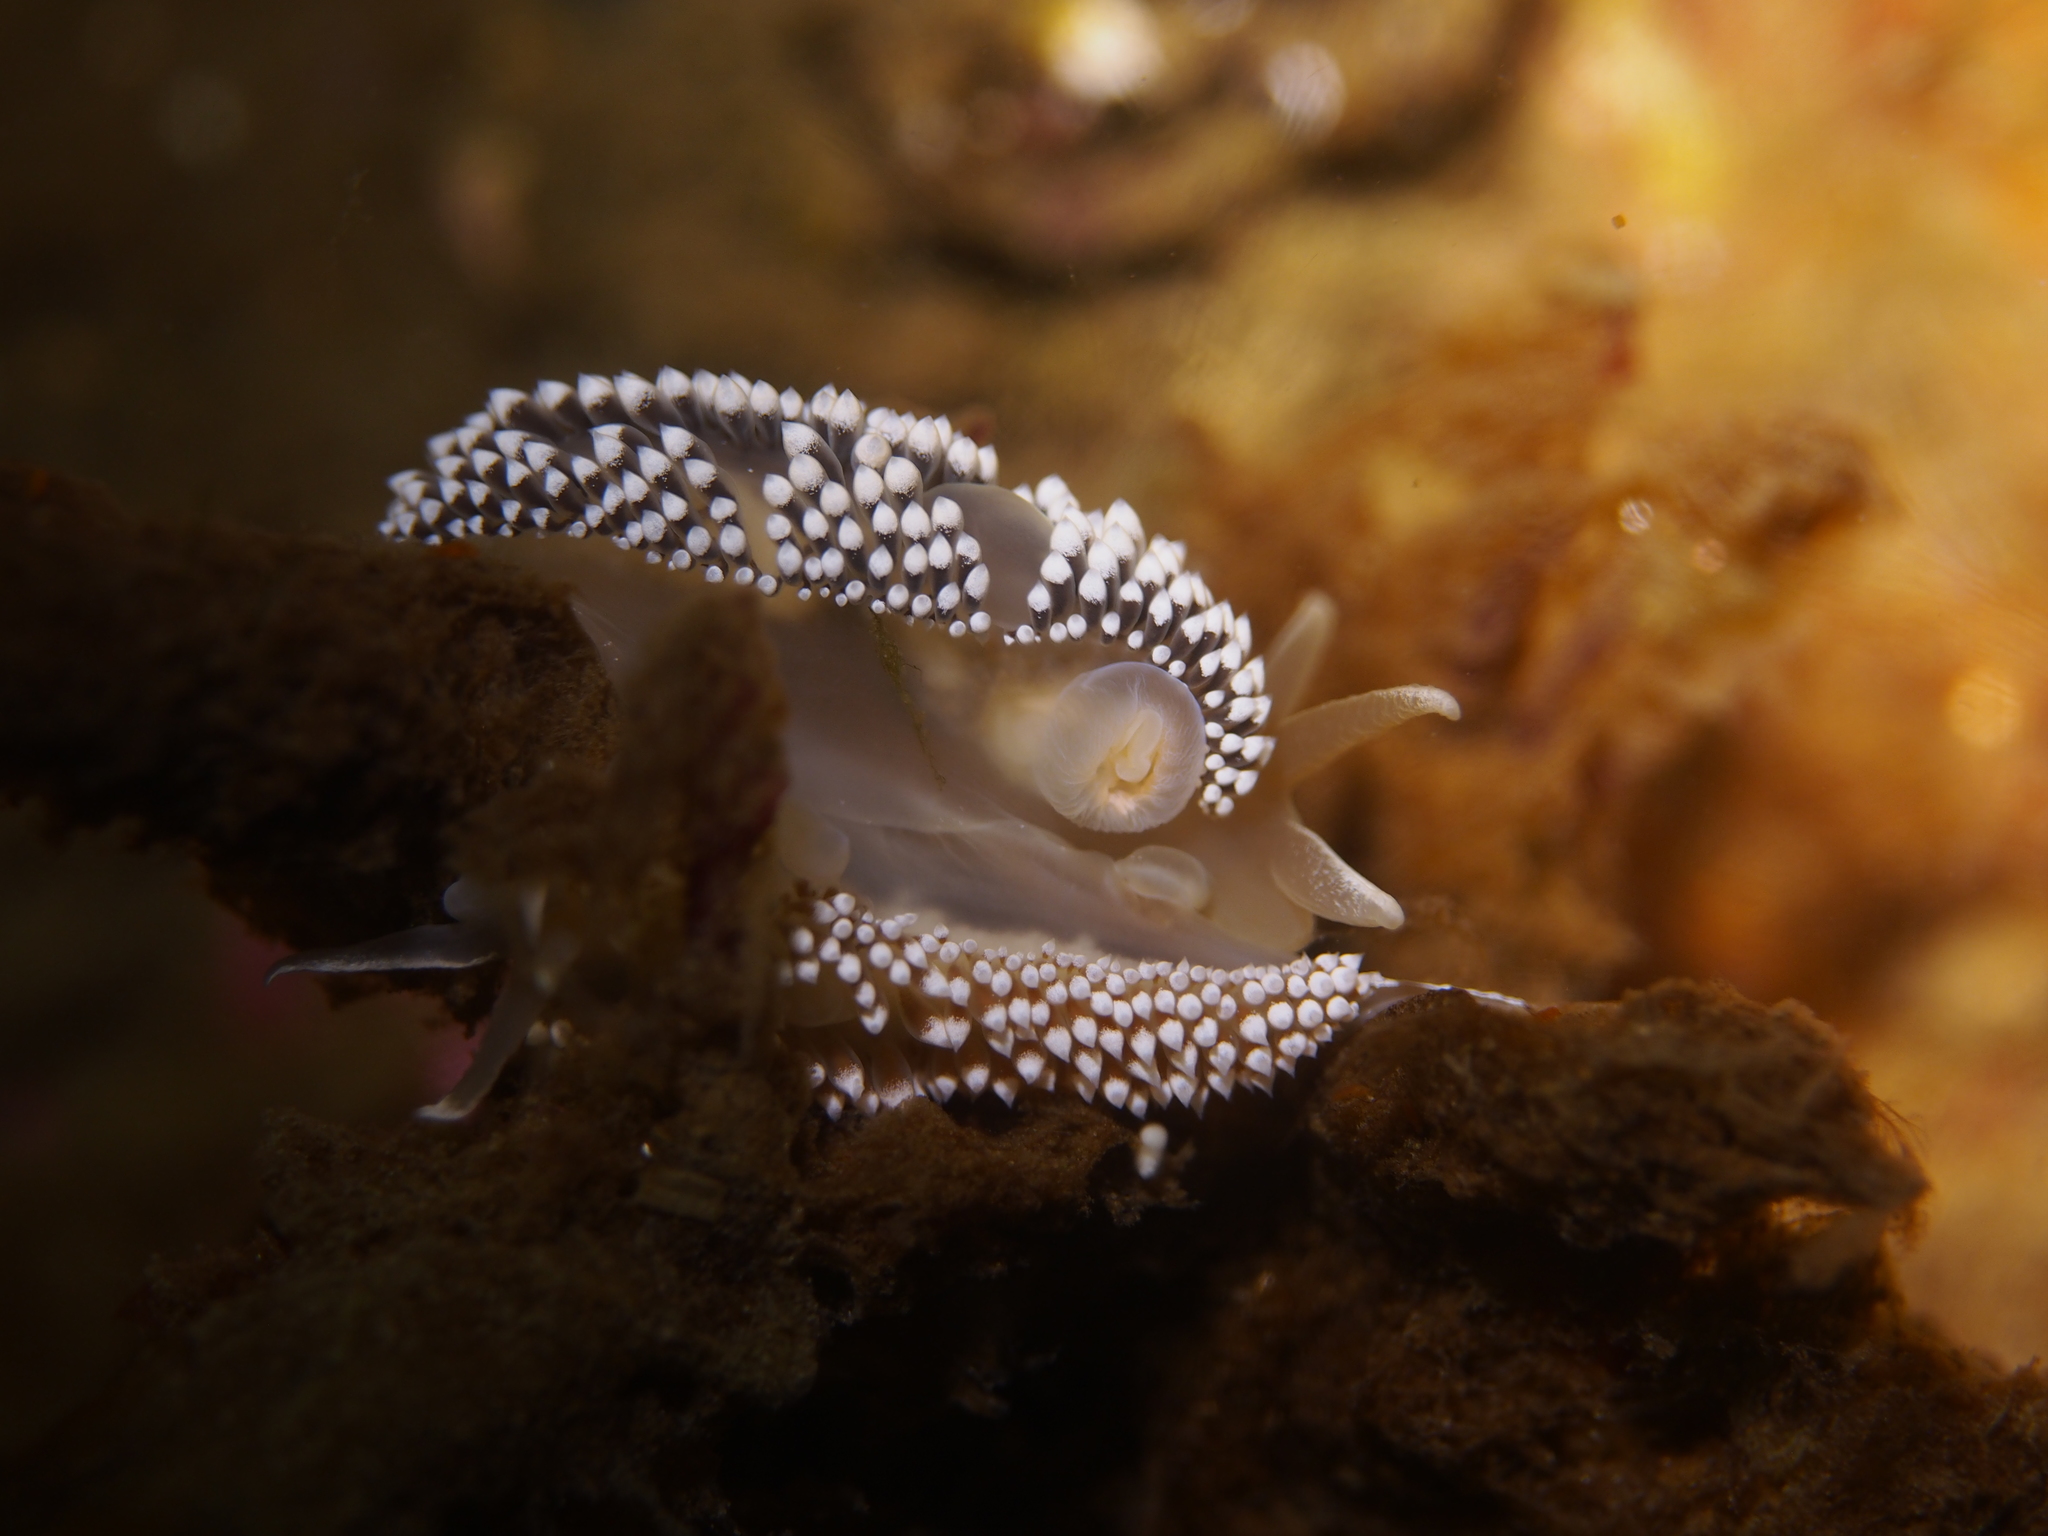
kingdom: Animalia
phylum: Mollusca
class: Gastropoda
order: Nudibranchia
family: Coryphellidae
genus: Coryphella
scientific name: Coryphella verrucosa
